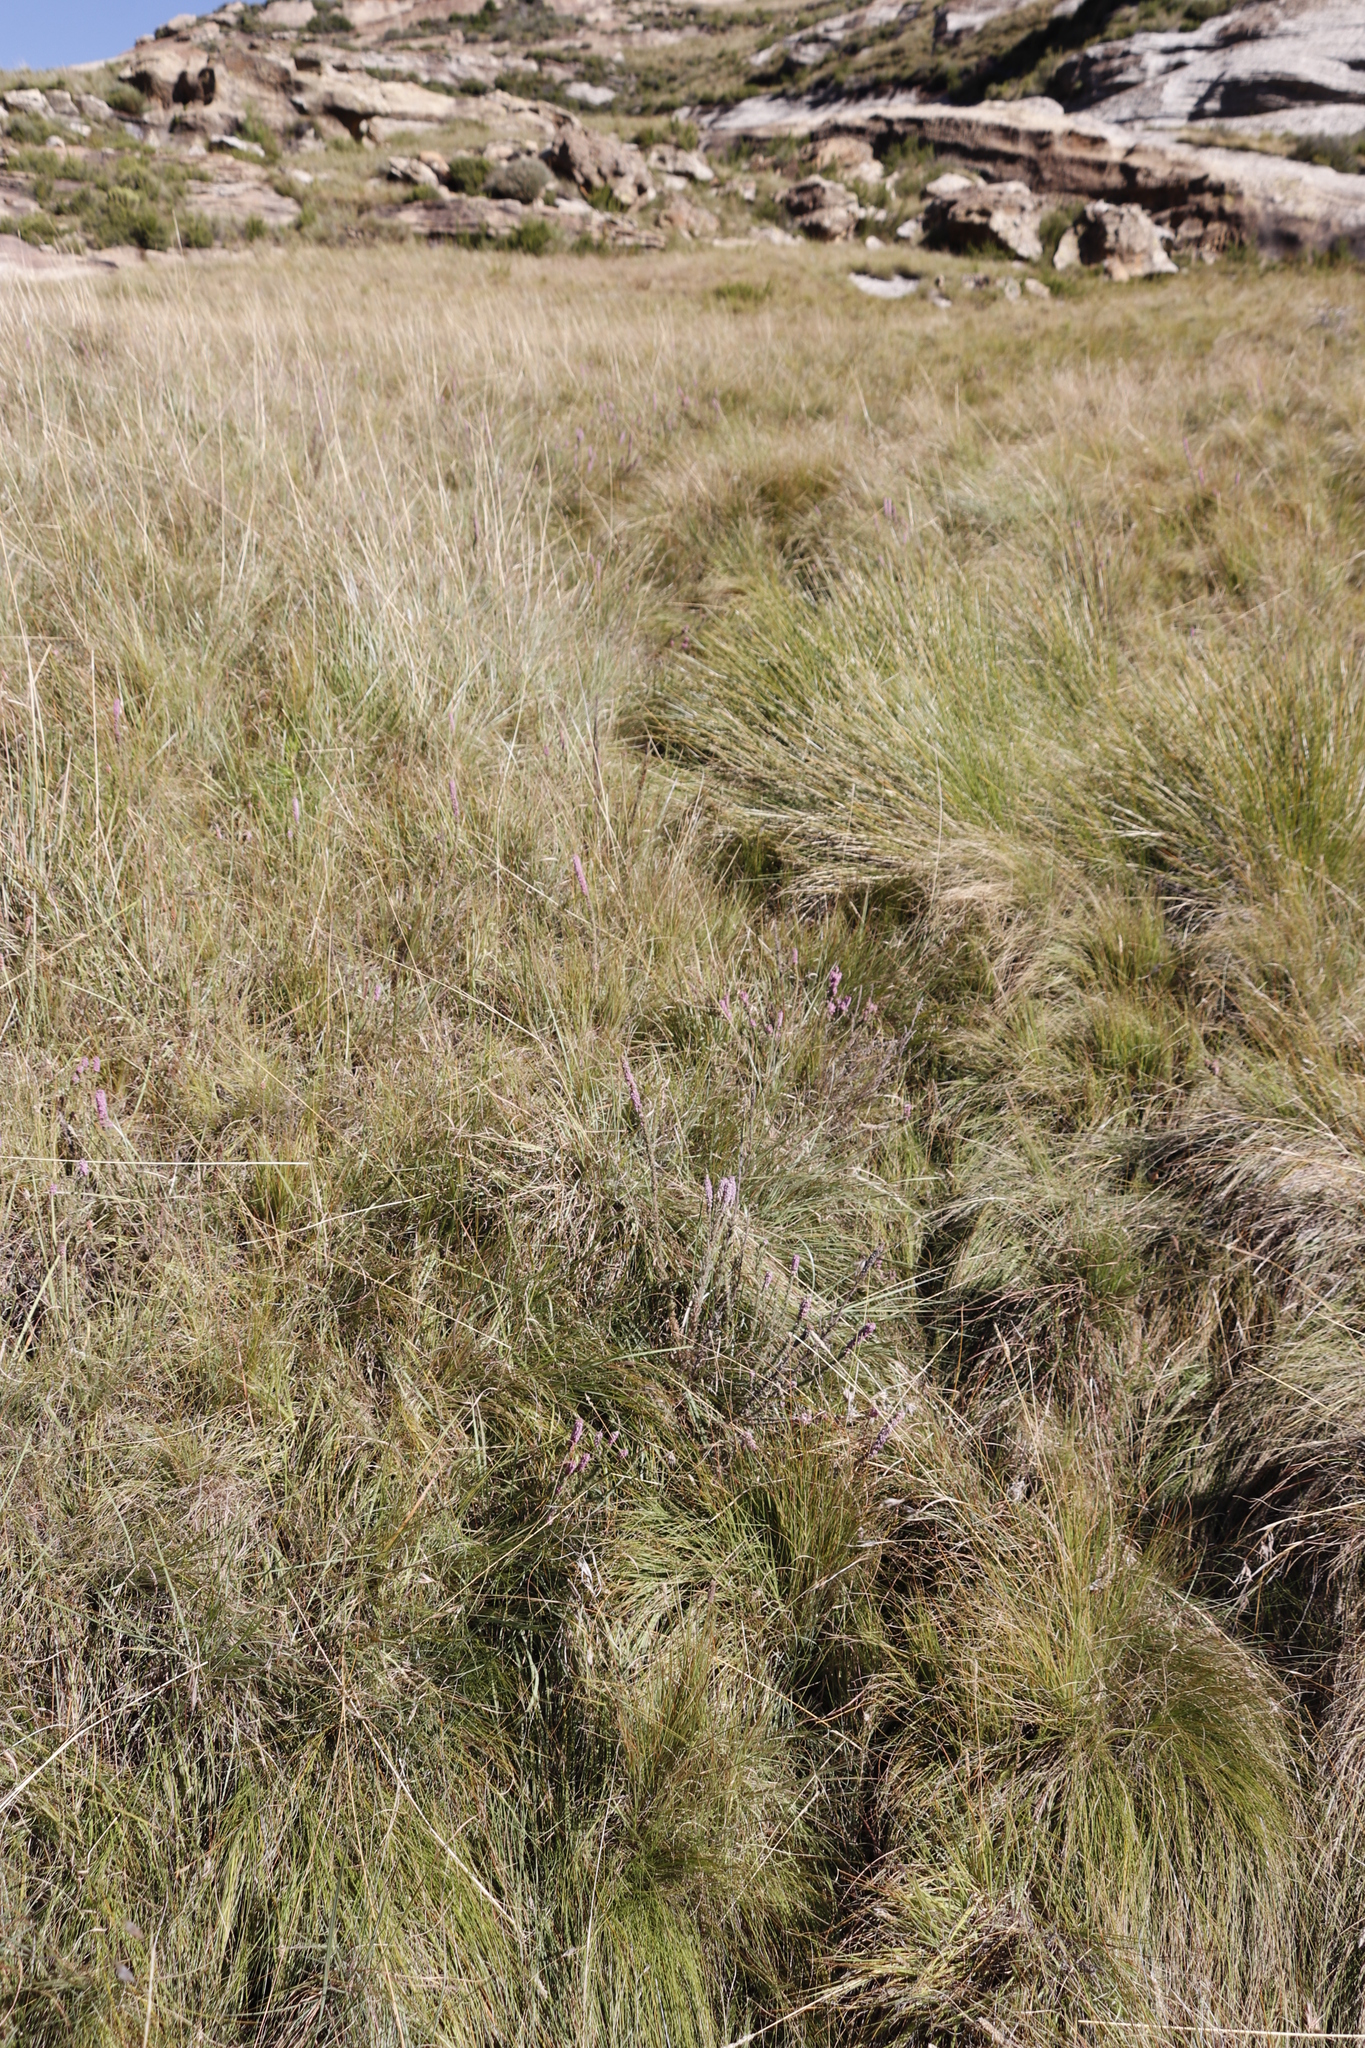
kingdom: Plantae
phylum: Tracheophyta
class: Magnoliopsida
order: Ericales
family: Ericaceae
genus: Erica
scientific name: Erica alopecurus
